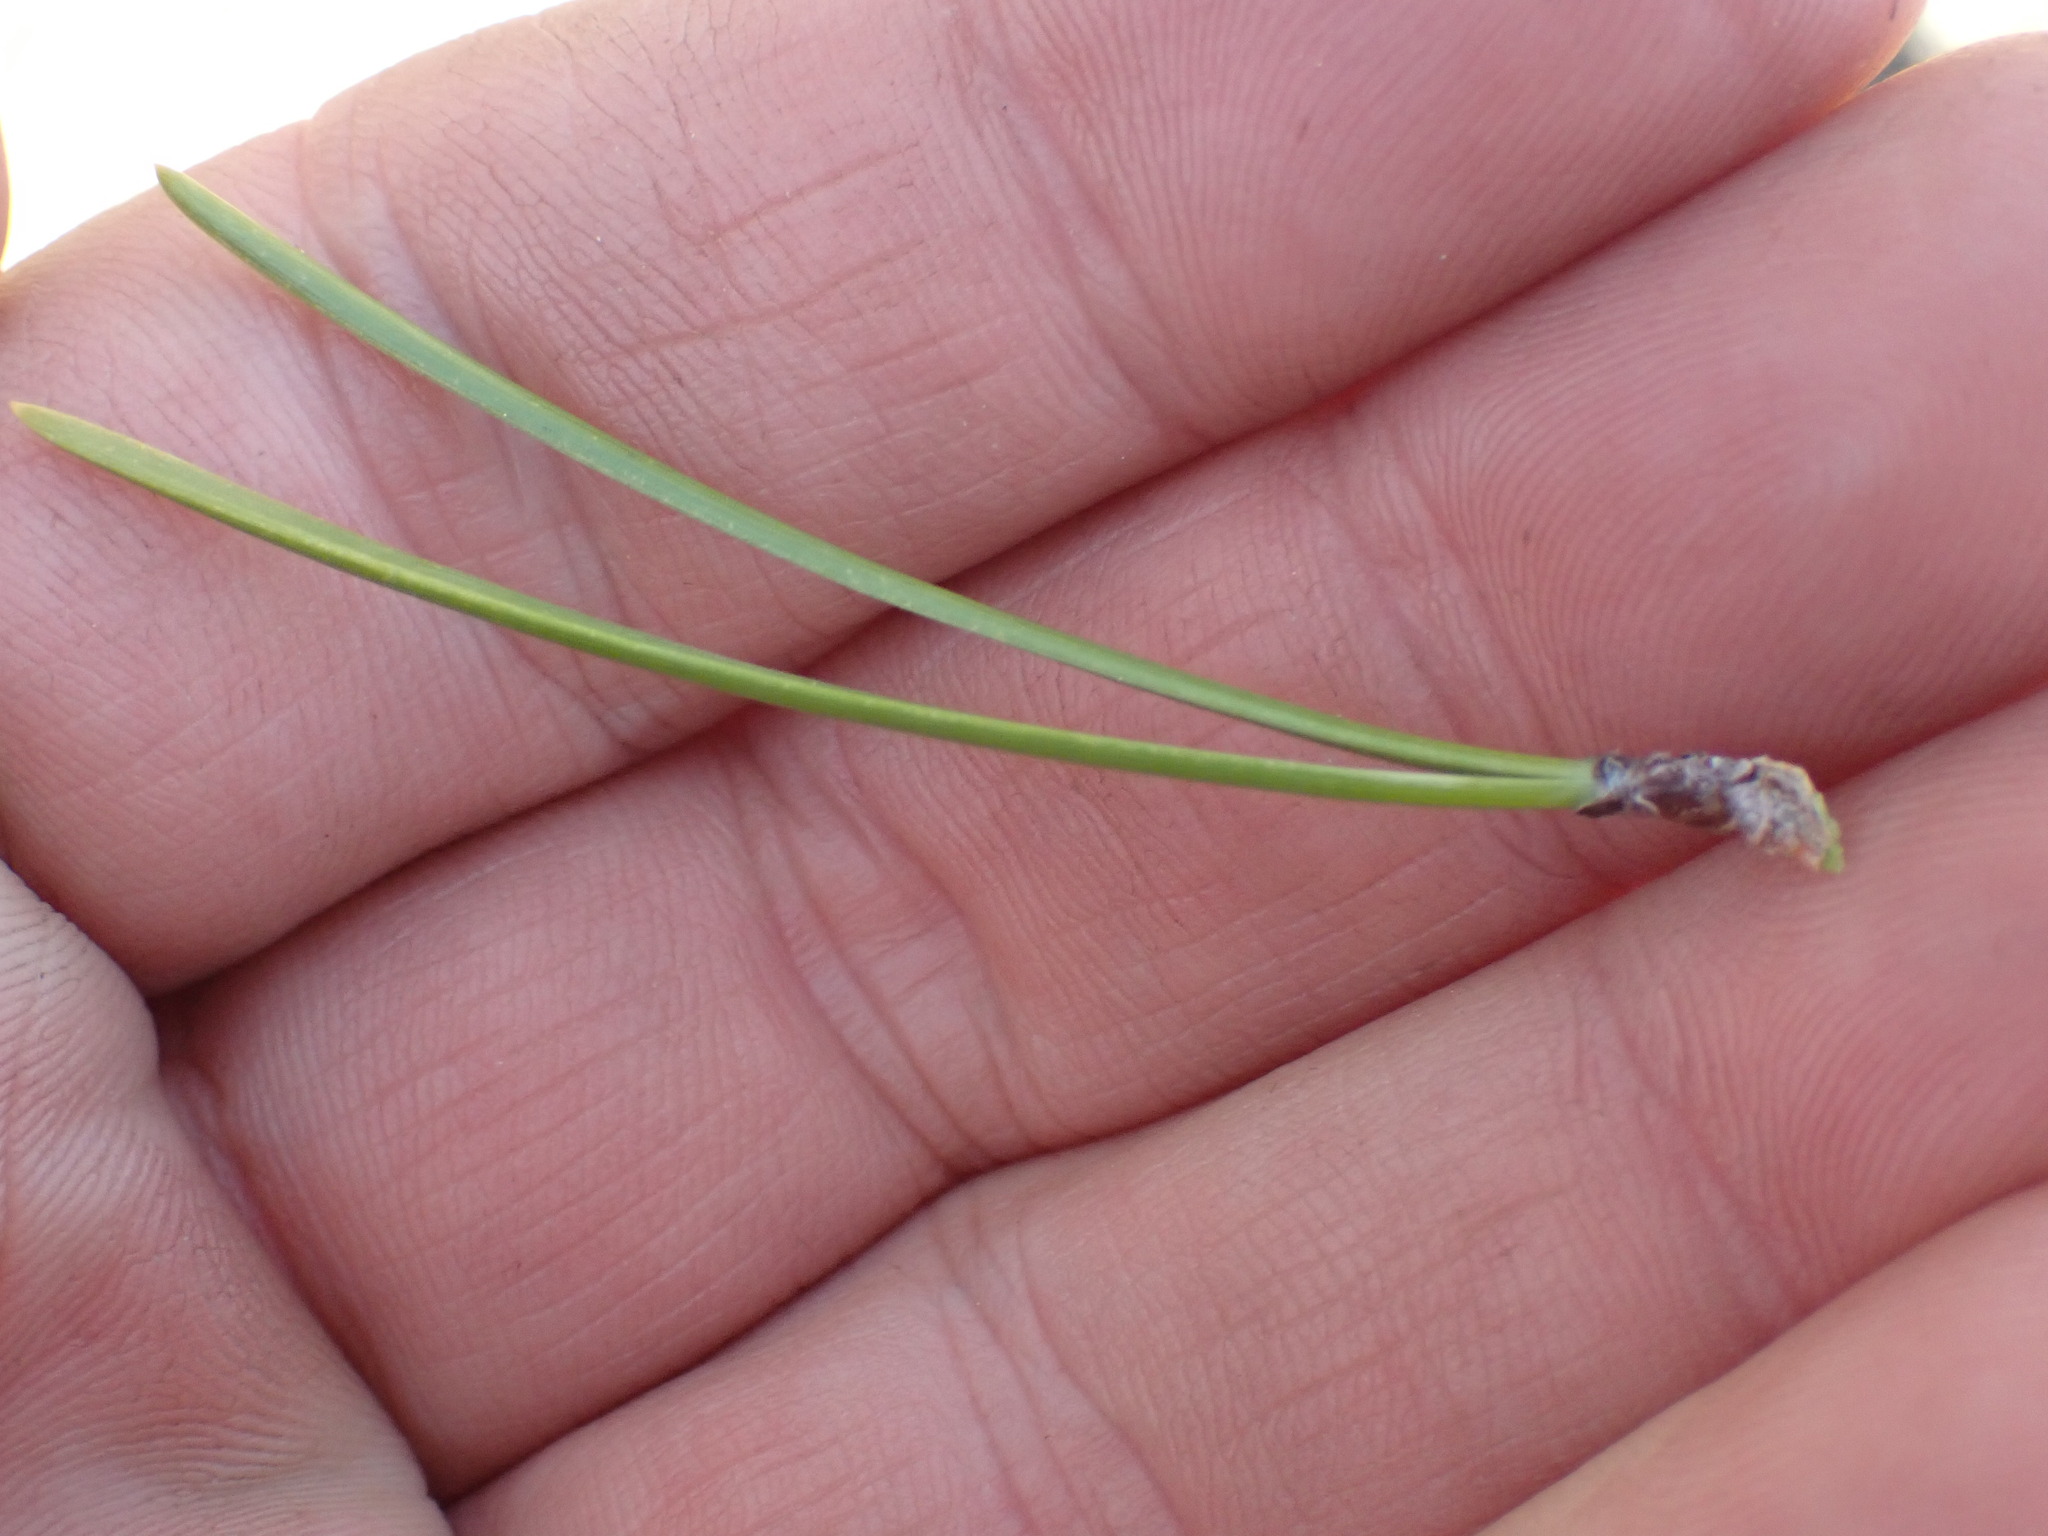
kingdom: Plantae
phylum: Tracheophyta
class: Pinopsida
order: Pinales
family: Pinaceae
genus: Pinus
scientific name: Pinus contorta
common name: Lodgepole pine
